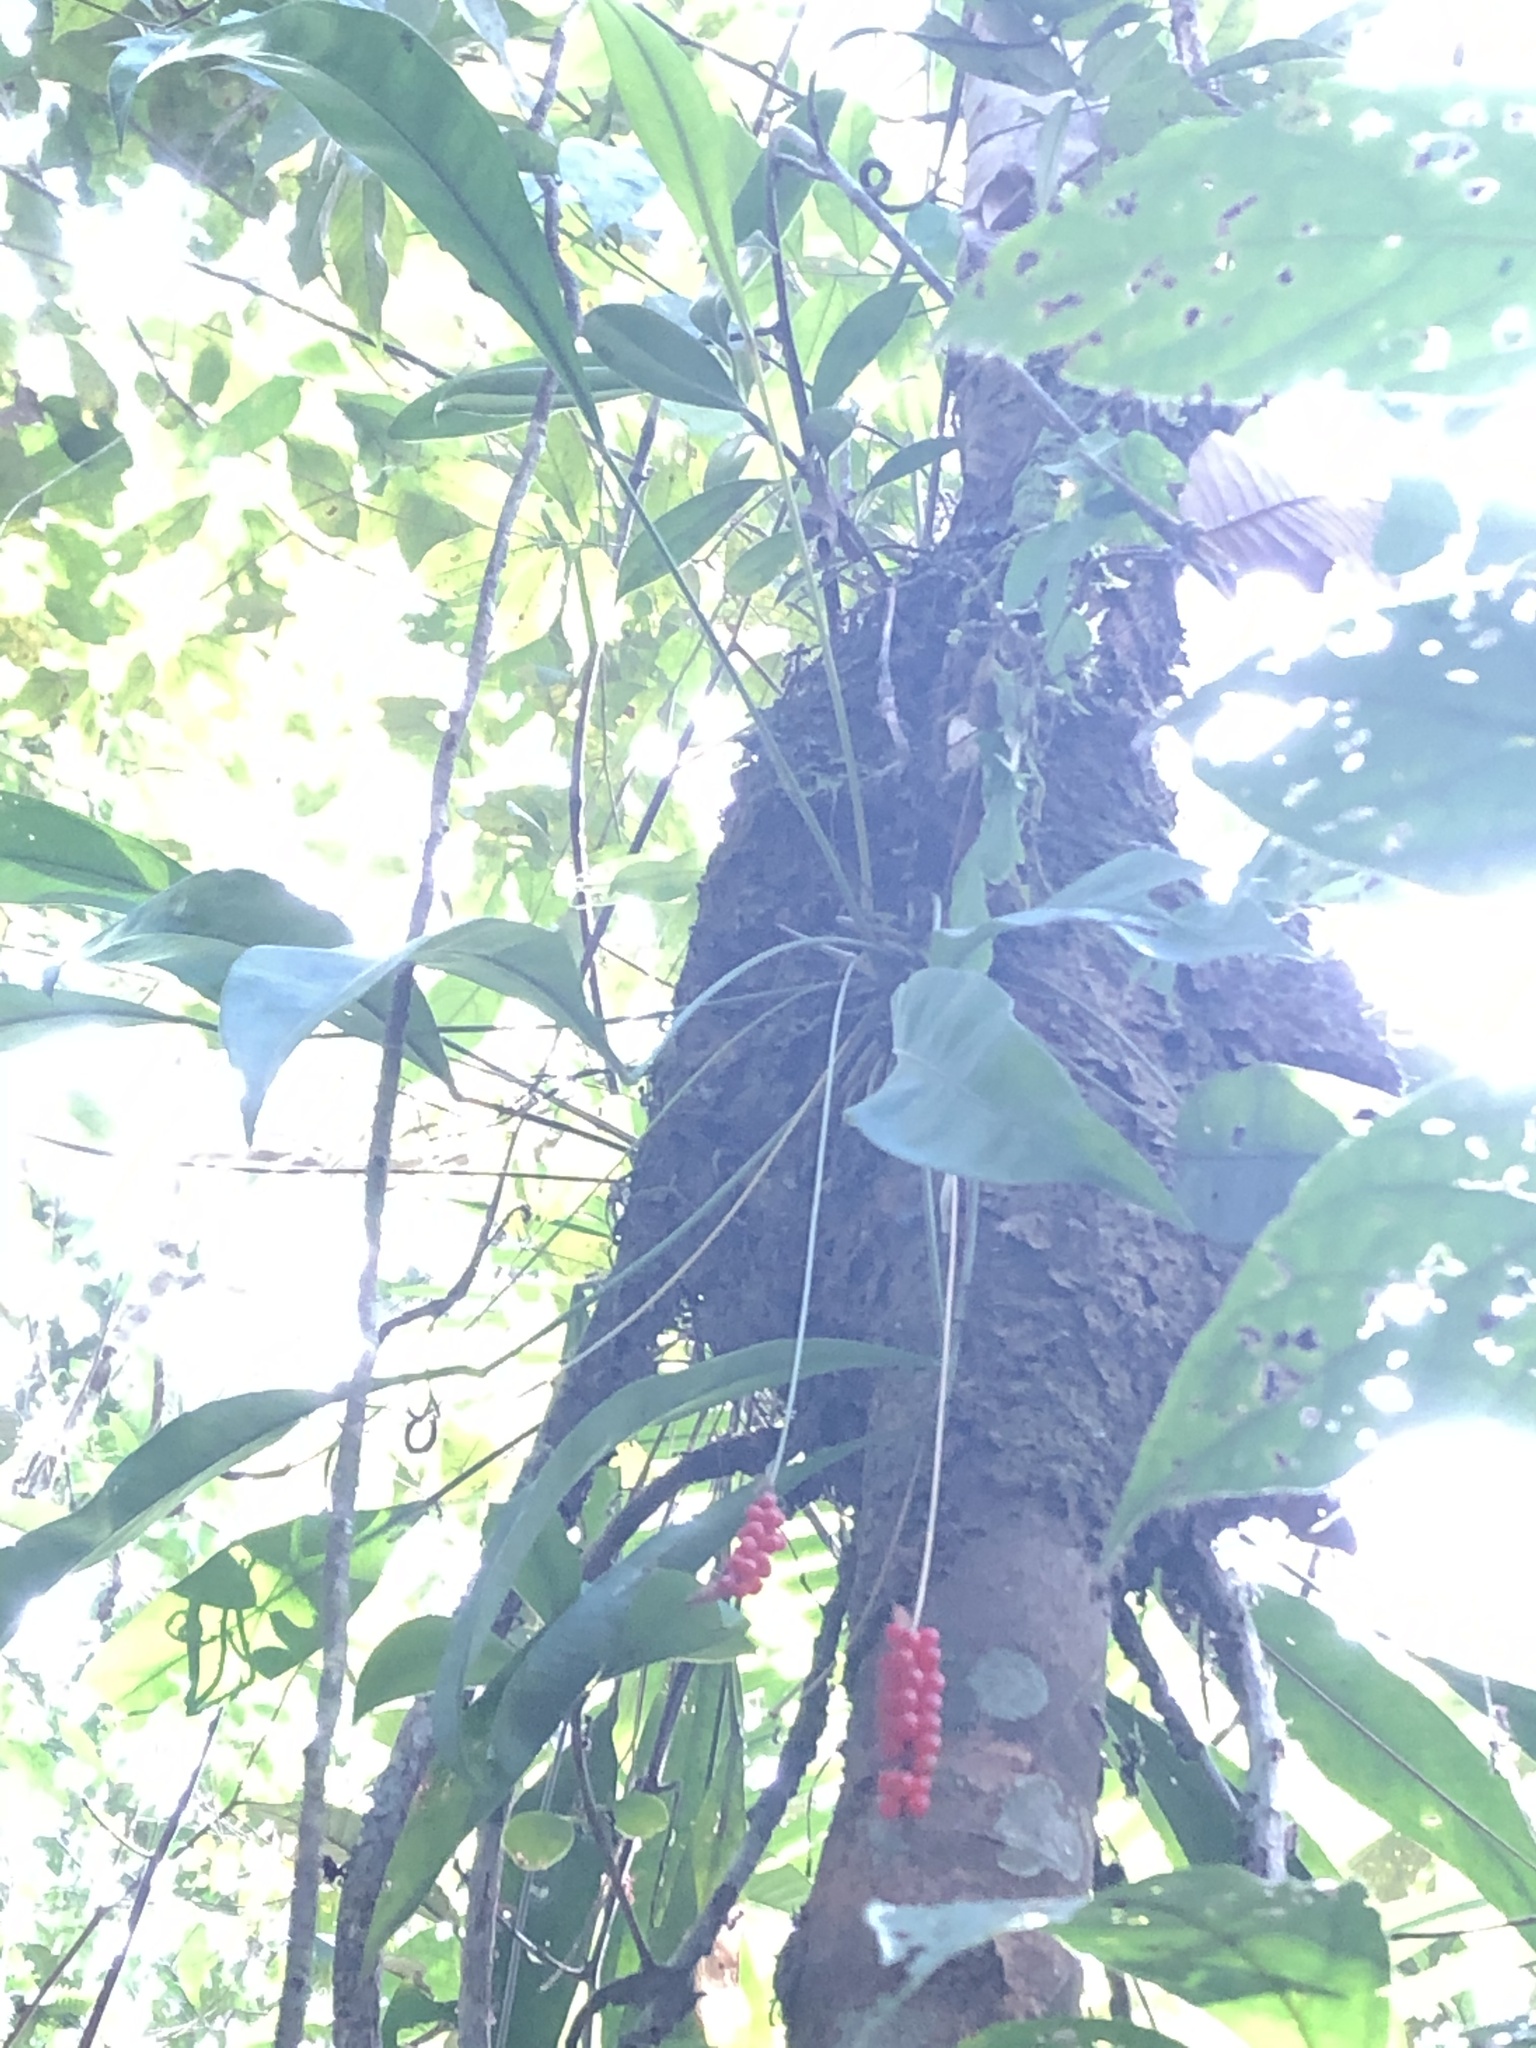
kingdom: Plantae
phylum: Tracheophyta
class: Liliopsida
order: Alismatales
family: Araceae
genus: Anthurium
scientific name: Anthurium gracile
